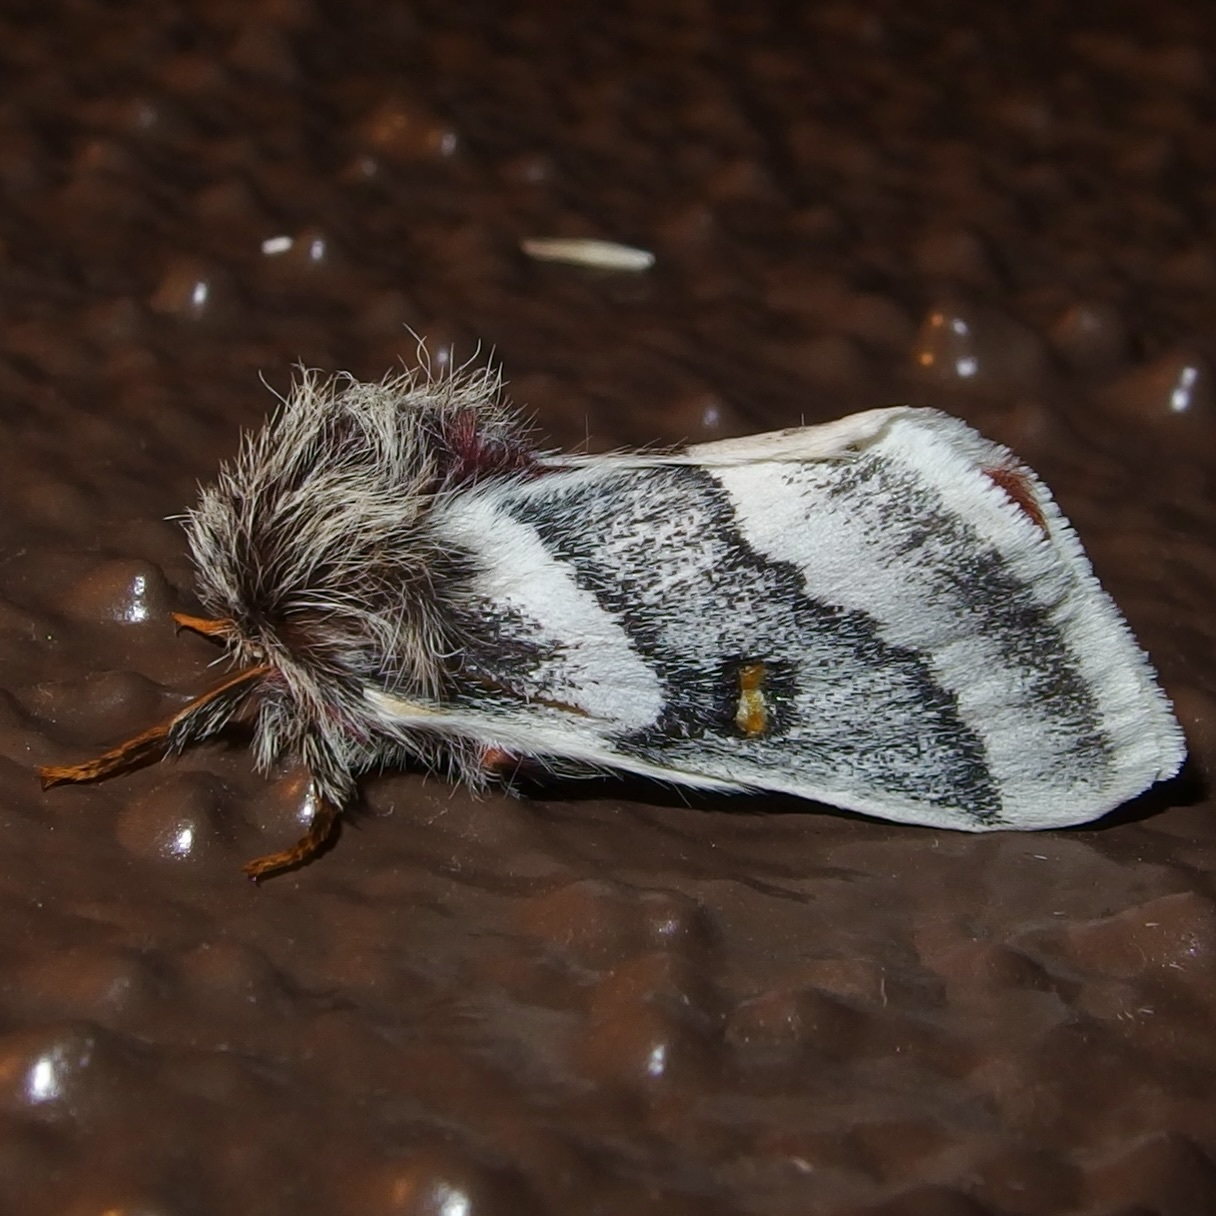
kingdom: Animalia
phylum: Arthropoda
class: Insecta
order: Lepidoptera
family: Saturniidae
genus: Hemileuca
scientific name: Hemileuca tricolor
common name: Tricolor buckmoth
